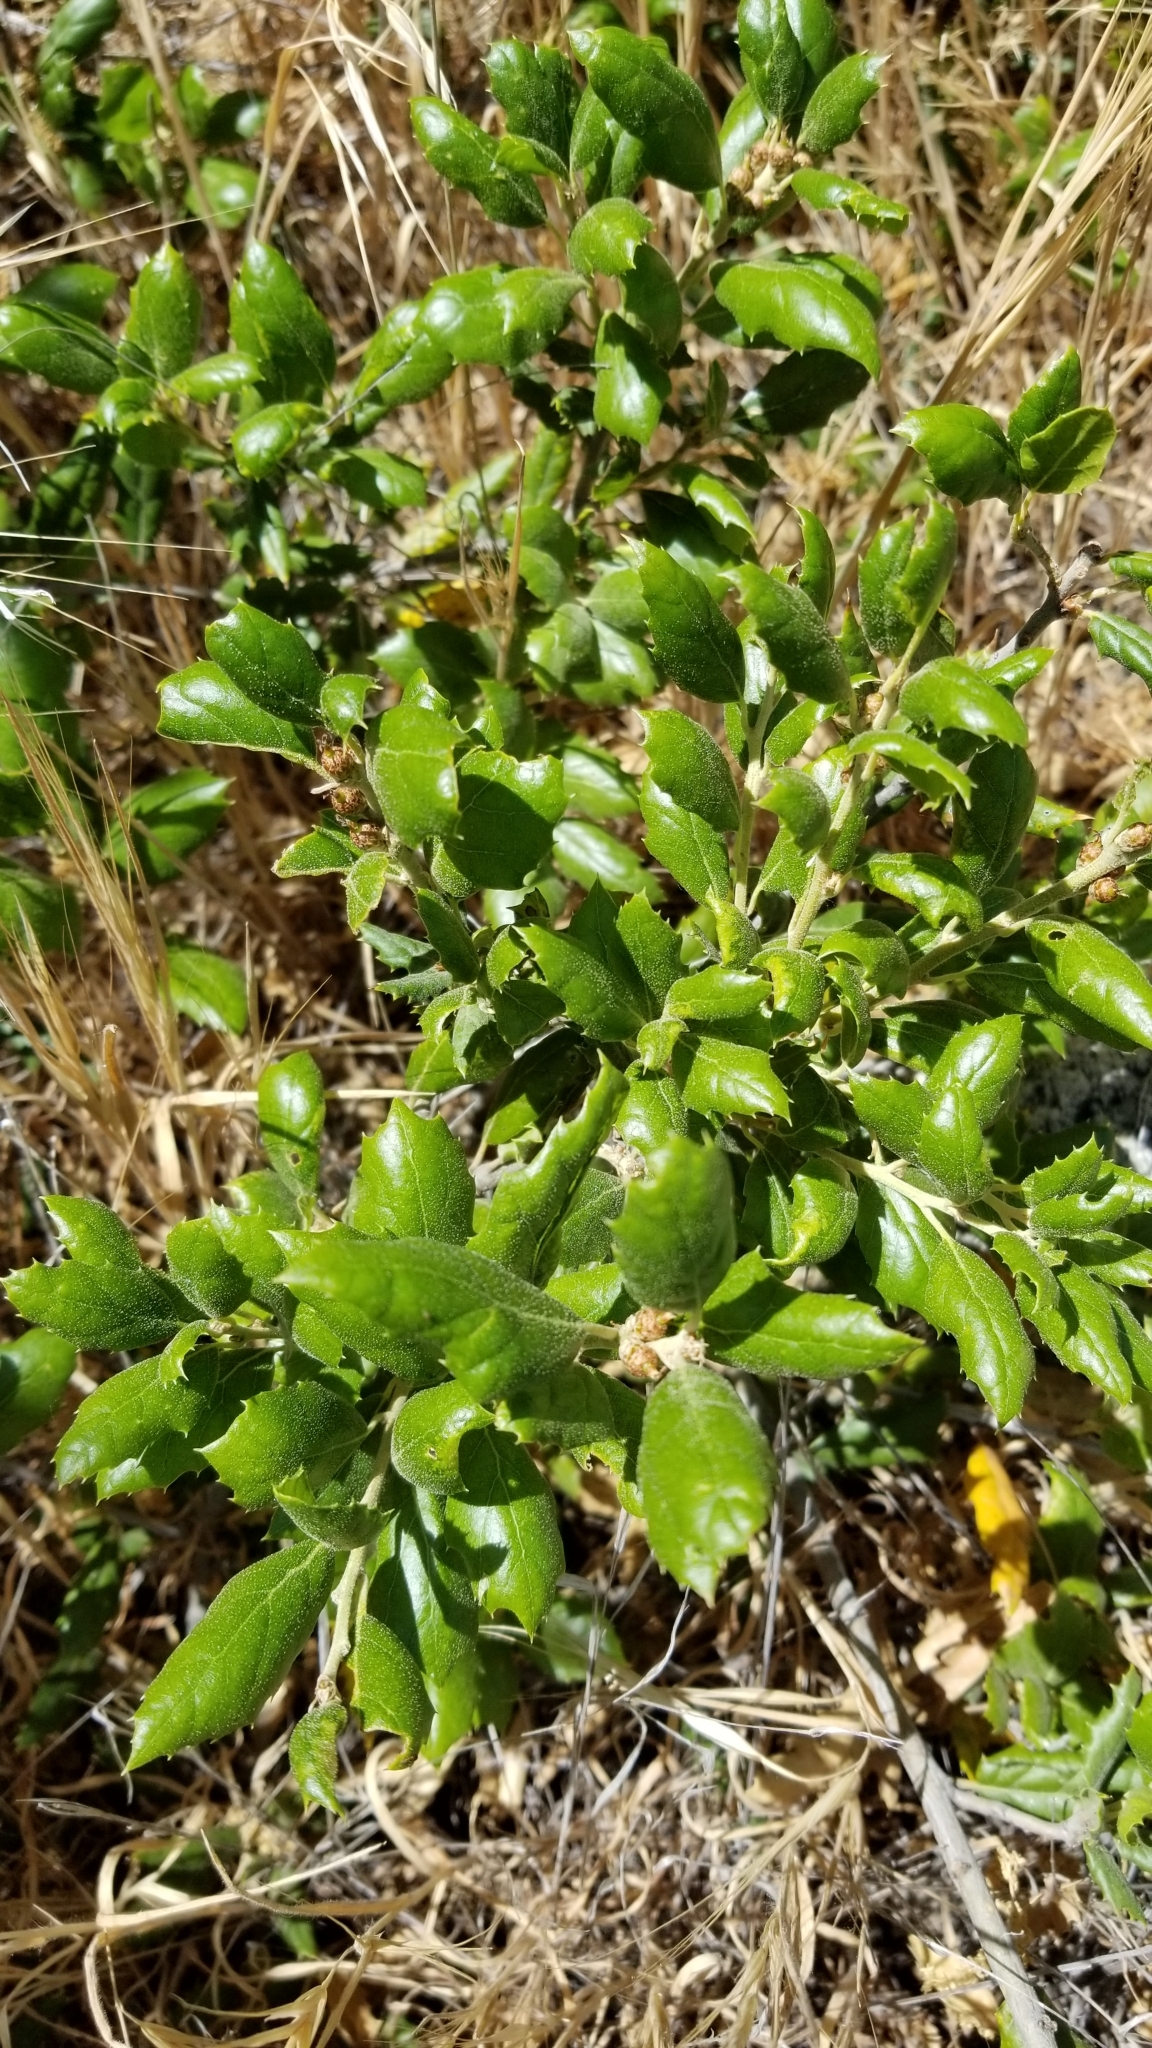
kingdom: Plantae
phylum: Tracheophyta
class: Magnoliopsida
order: Fagales
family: Fagaceae
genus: Quercus
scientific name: Quercus agrifolia
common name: California live oak
